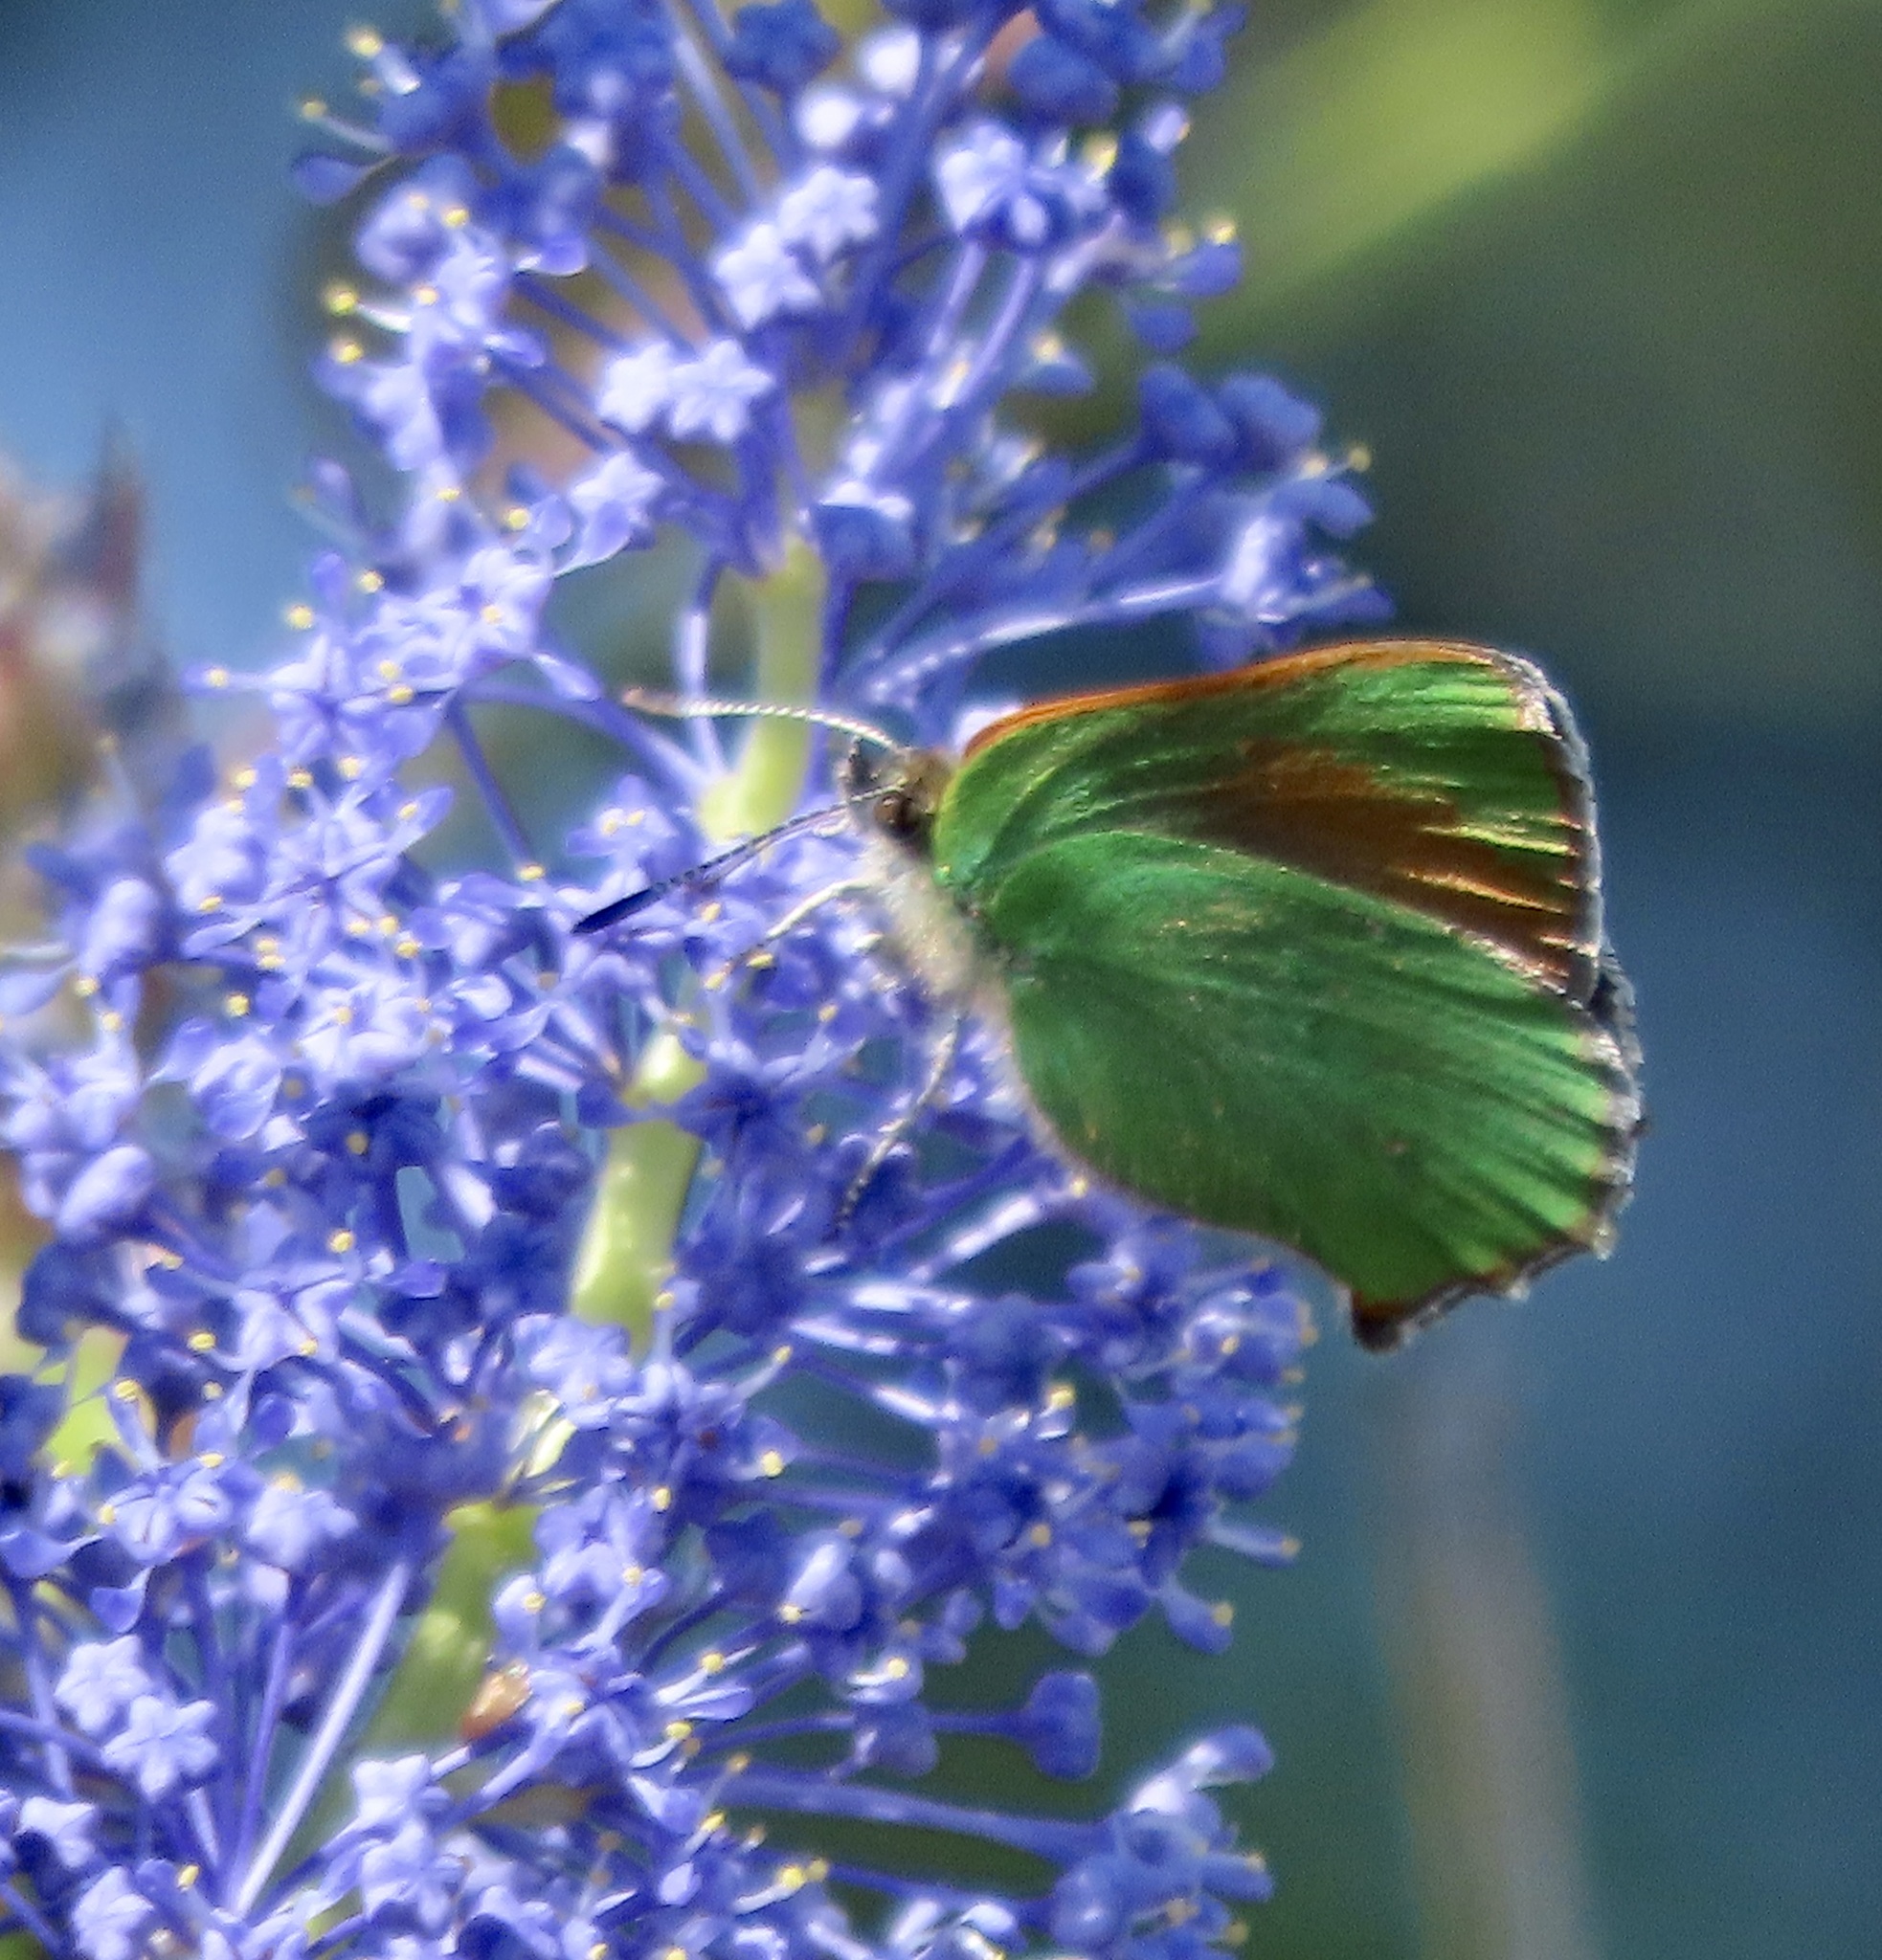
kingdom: Animalia
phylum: Arthropoda
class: Insecta
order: Lepidoptera
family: Lycaenidae
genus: Callophrys
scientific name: Callophrys dumetorum
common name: Bramble hairstreak
